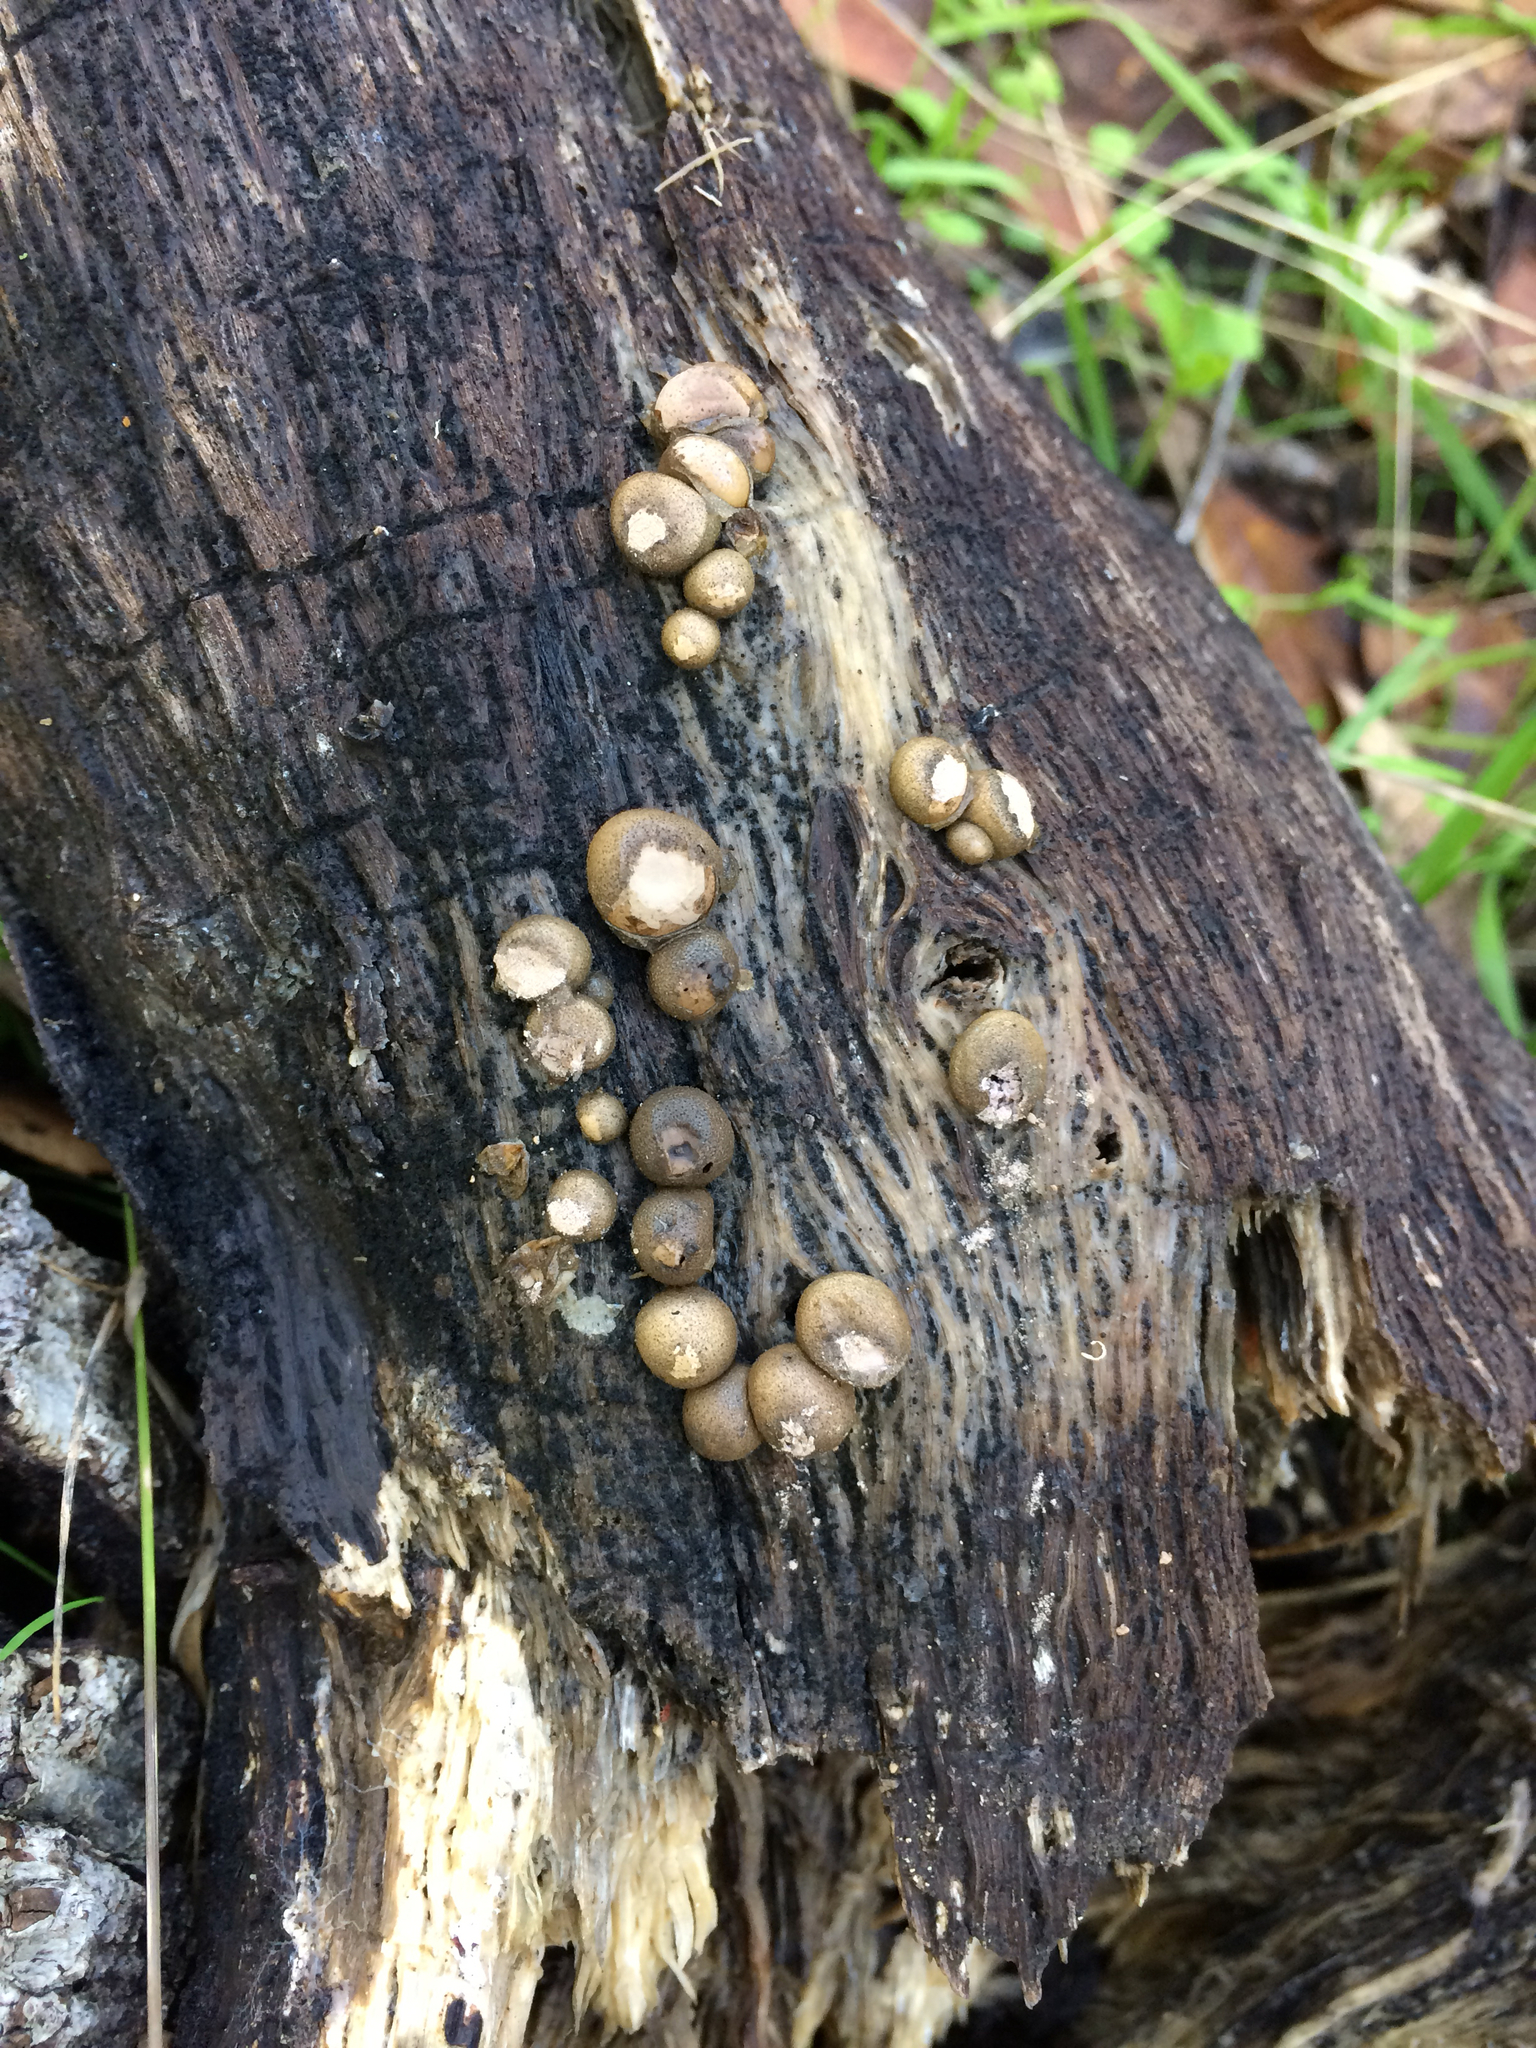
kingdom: Protozoa
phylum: Mycetozoa
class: Myxomycetes
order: Cribrariales
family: Tubiferaceae
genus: Lycogala
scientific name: Lycogala epidendrum
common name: Wolf's milk
